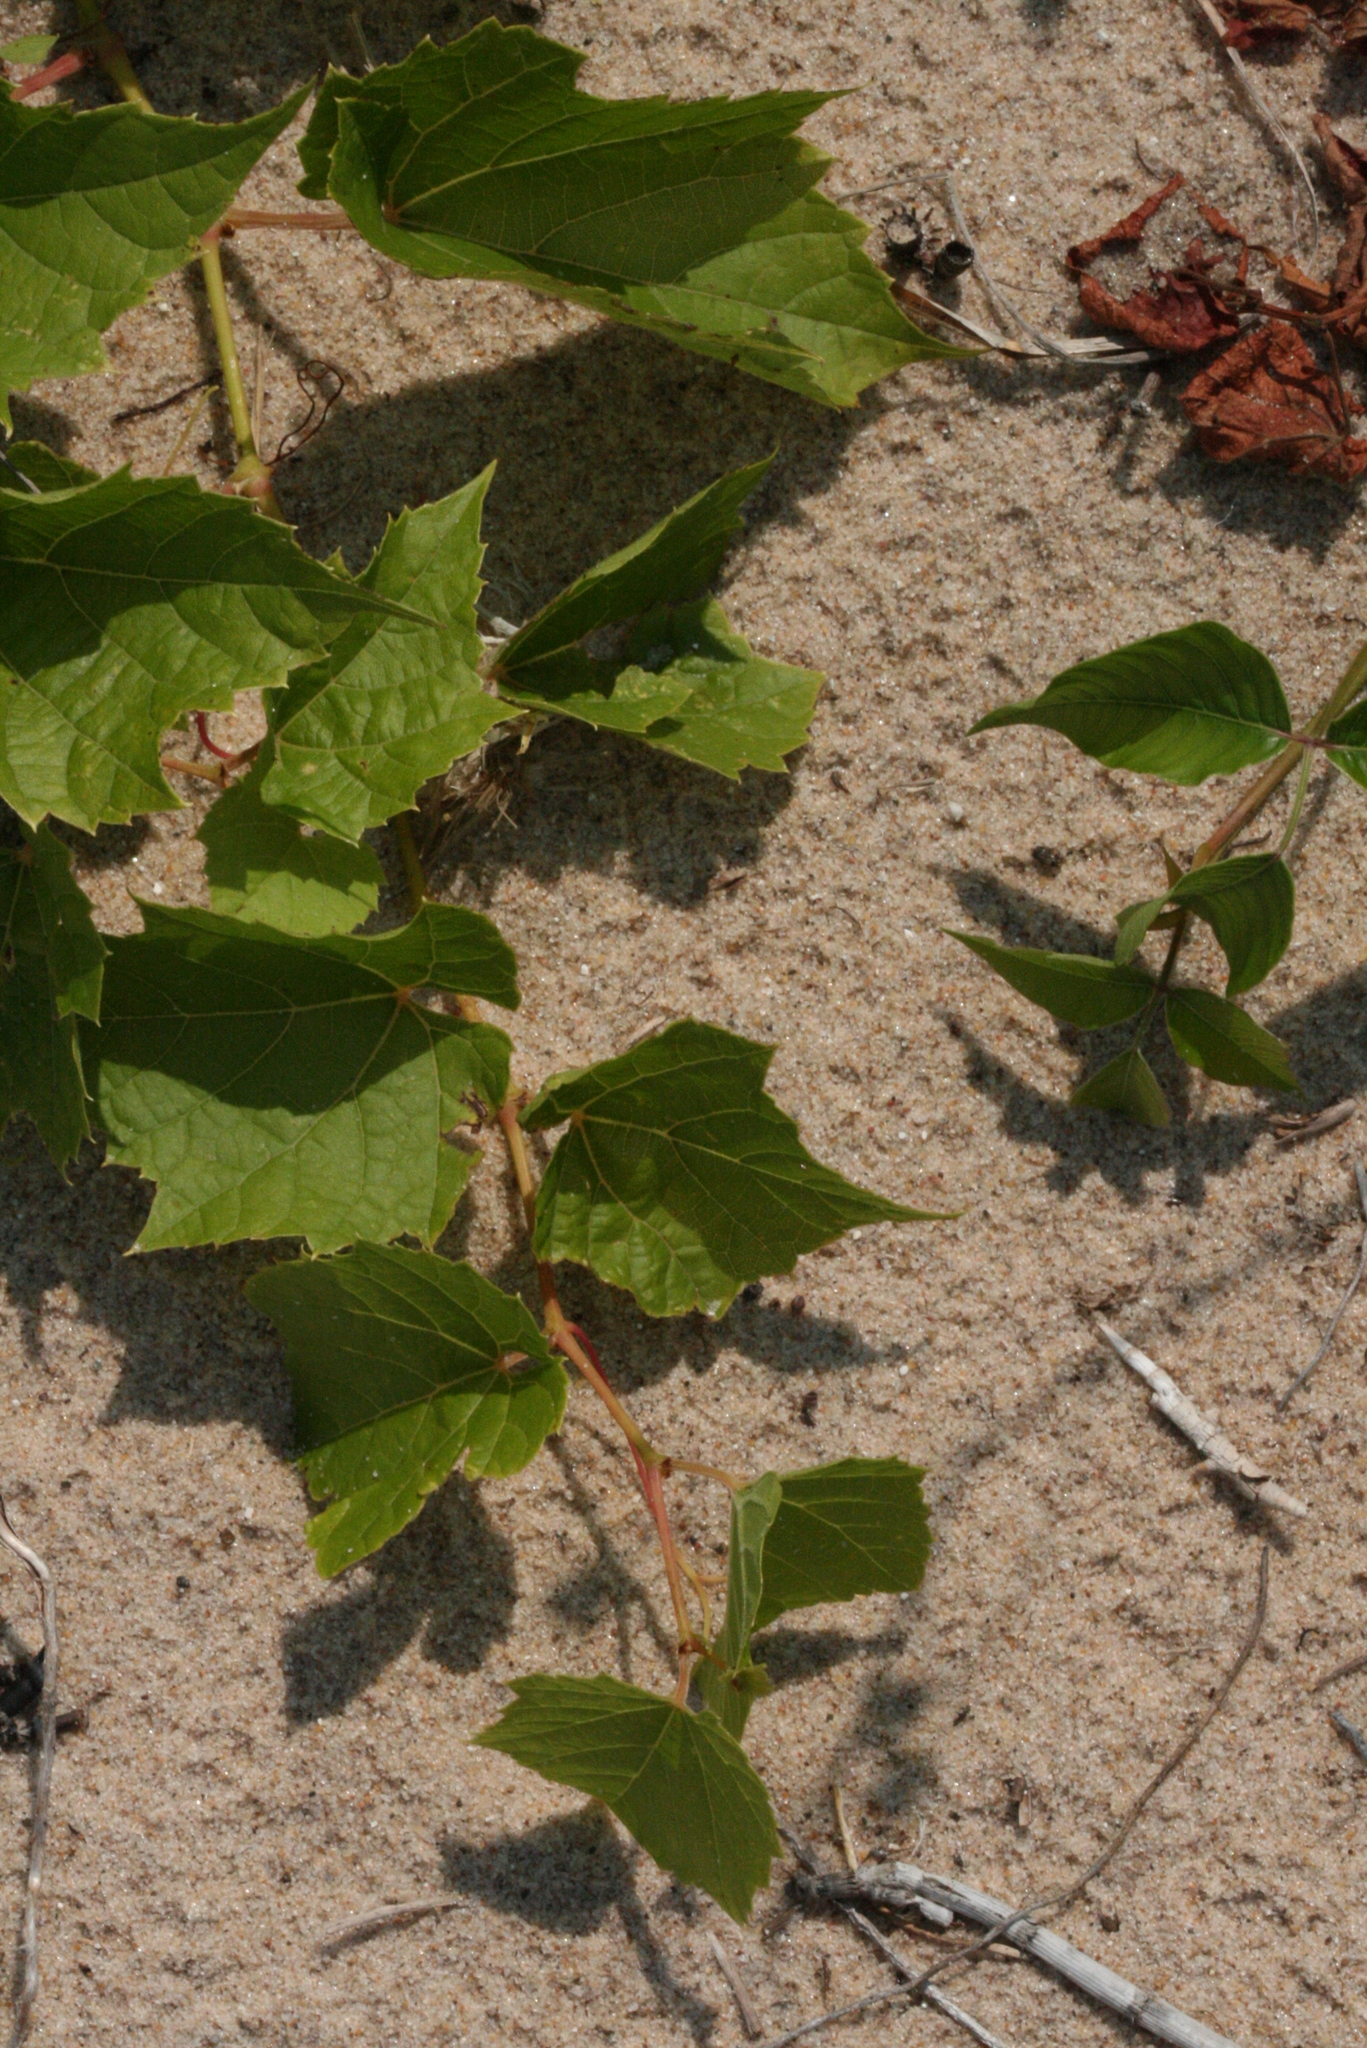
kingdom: Plantae
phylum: Tracheophyta
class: Magnoliopsida
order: Vitales
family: Vitaceae
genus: Vitis
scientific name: Vitis riparia
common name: Frost grape
